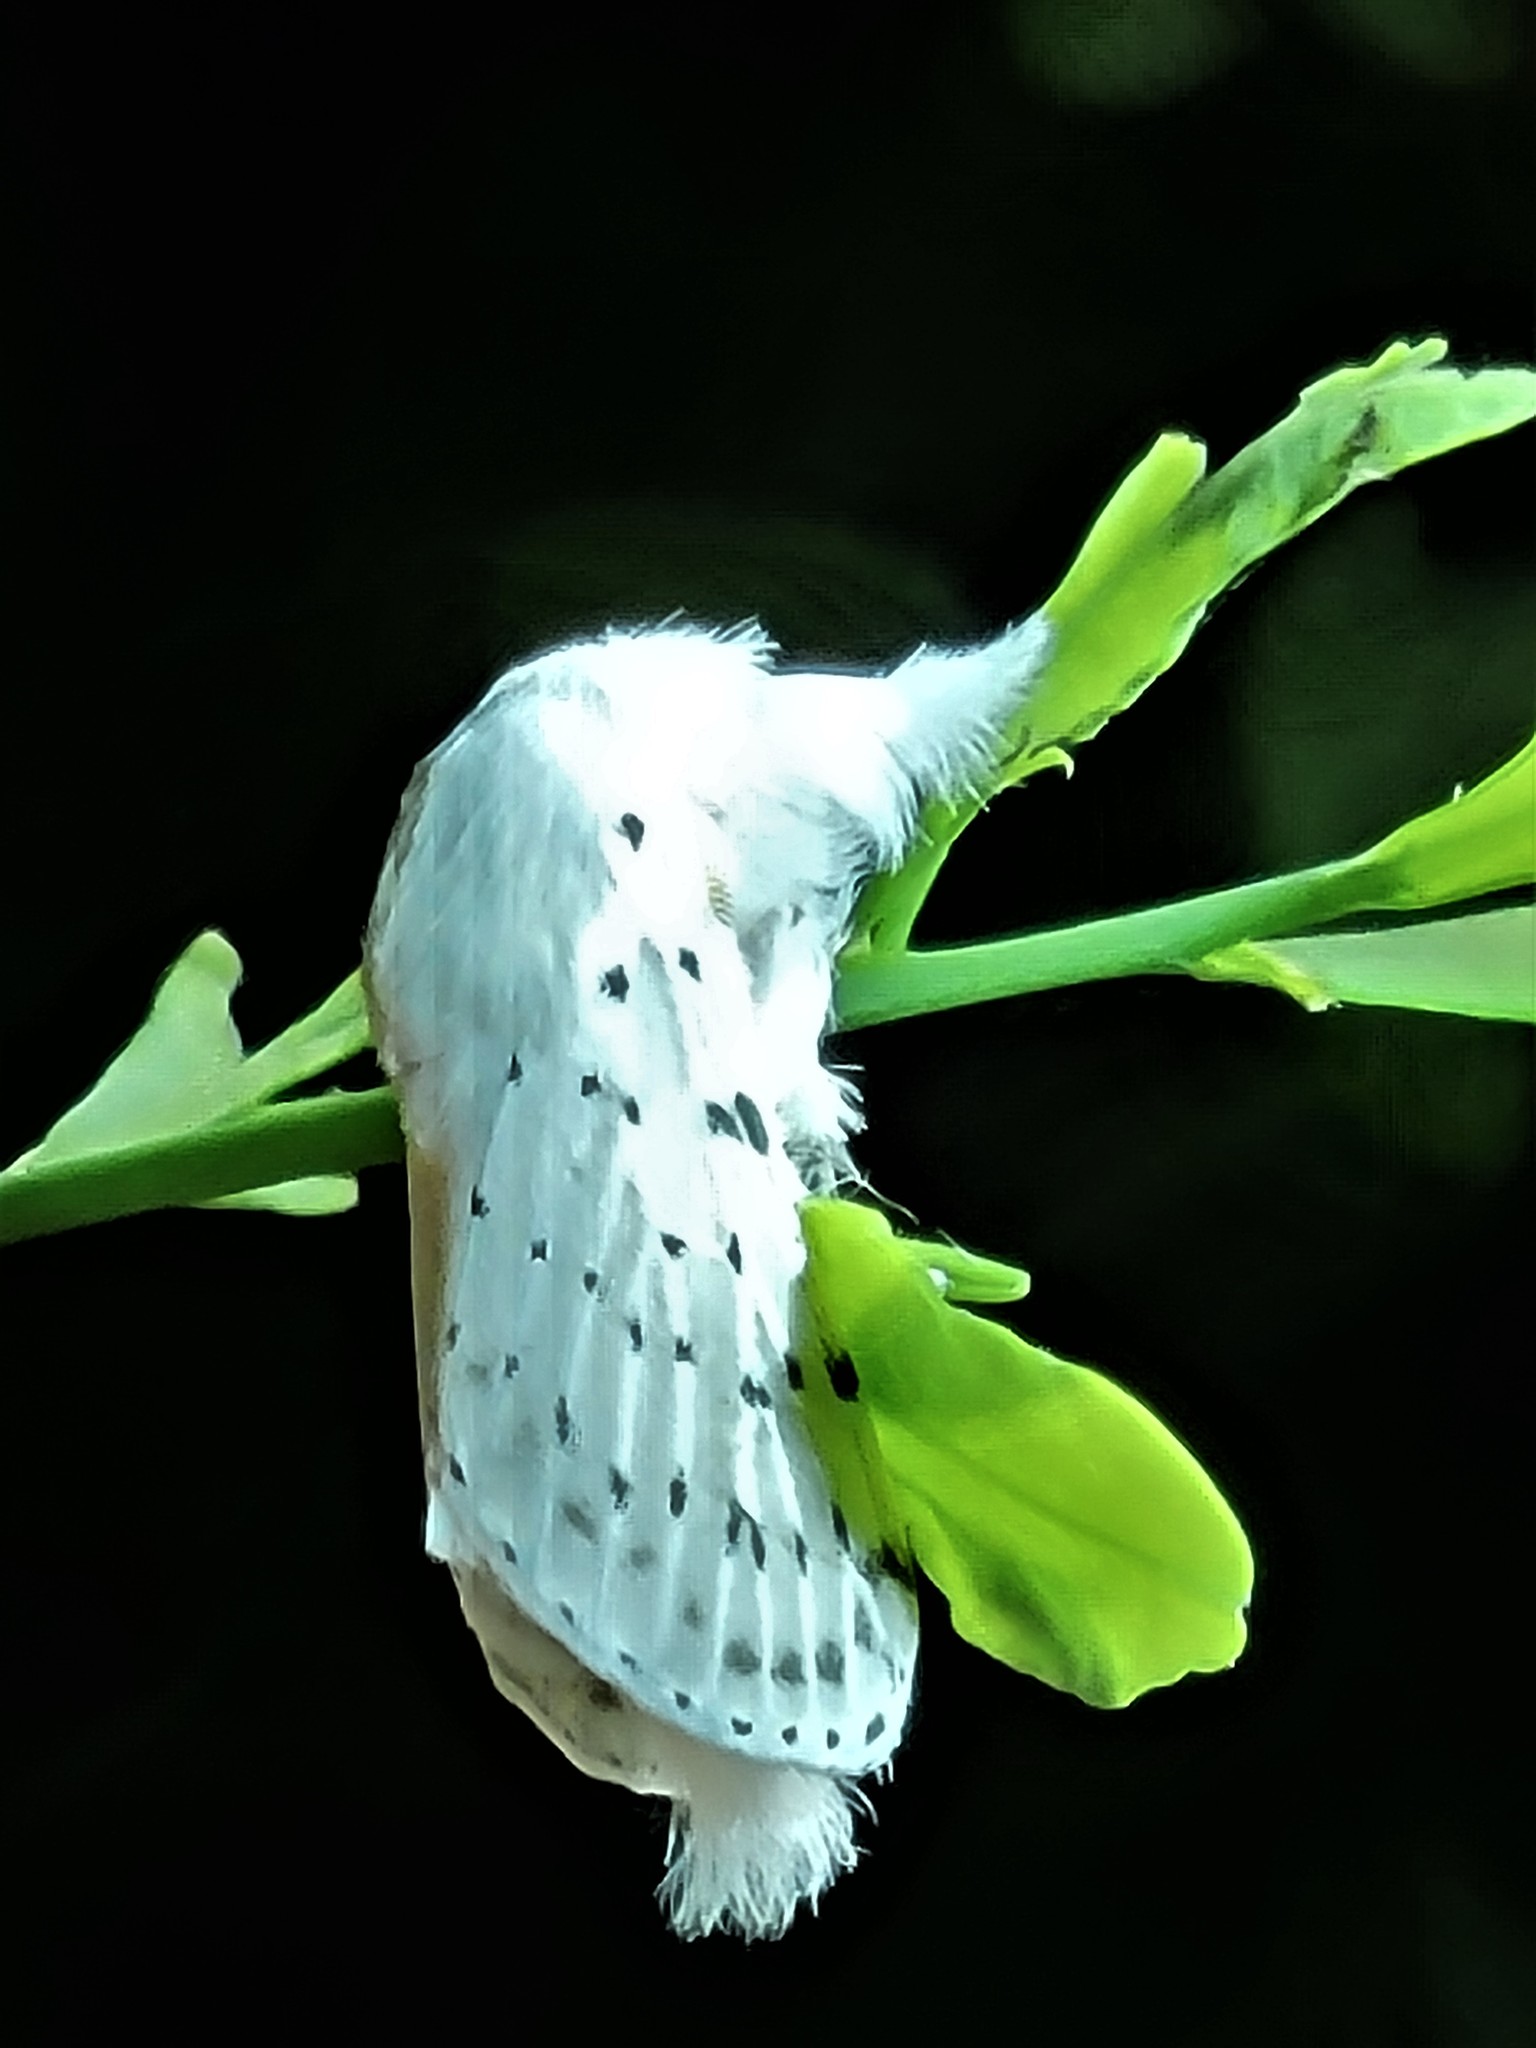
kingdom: Animalia
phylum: Arthropoda
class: Insecta
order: Lepidoptera
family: Lasiocampidae
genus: Artace
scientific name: Artace cribrarius
